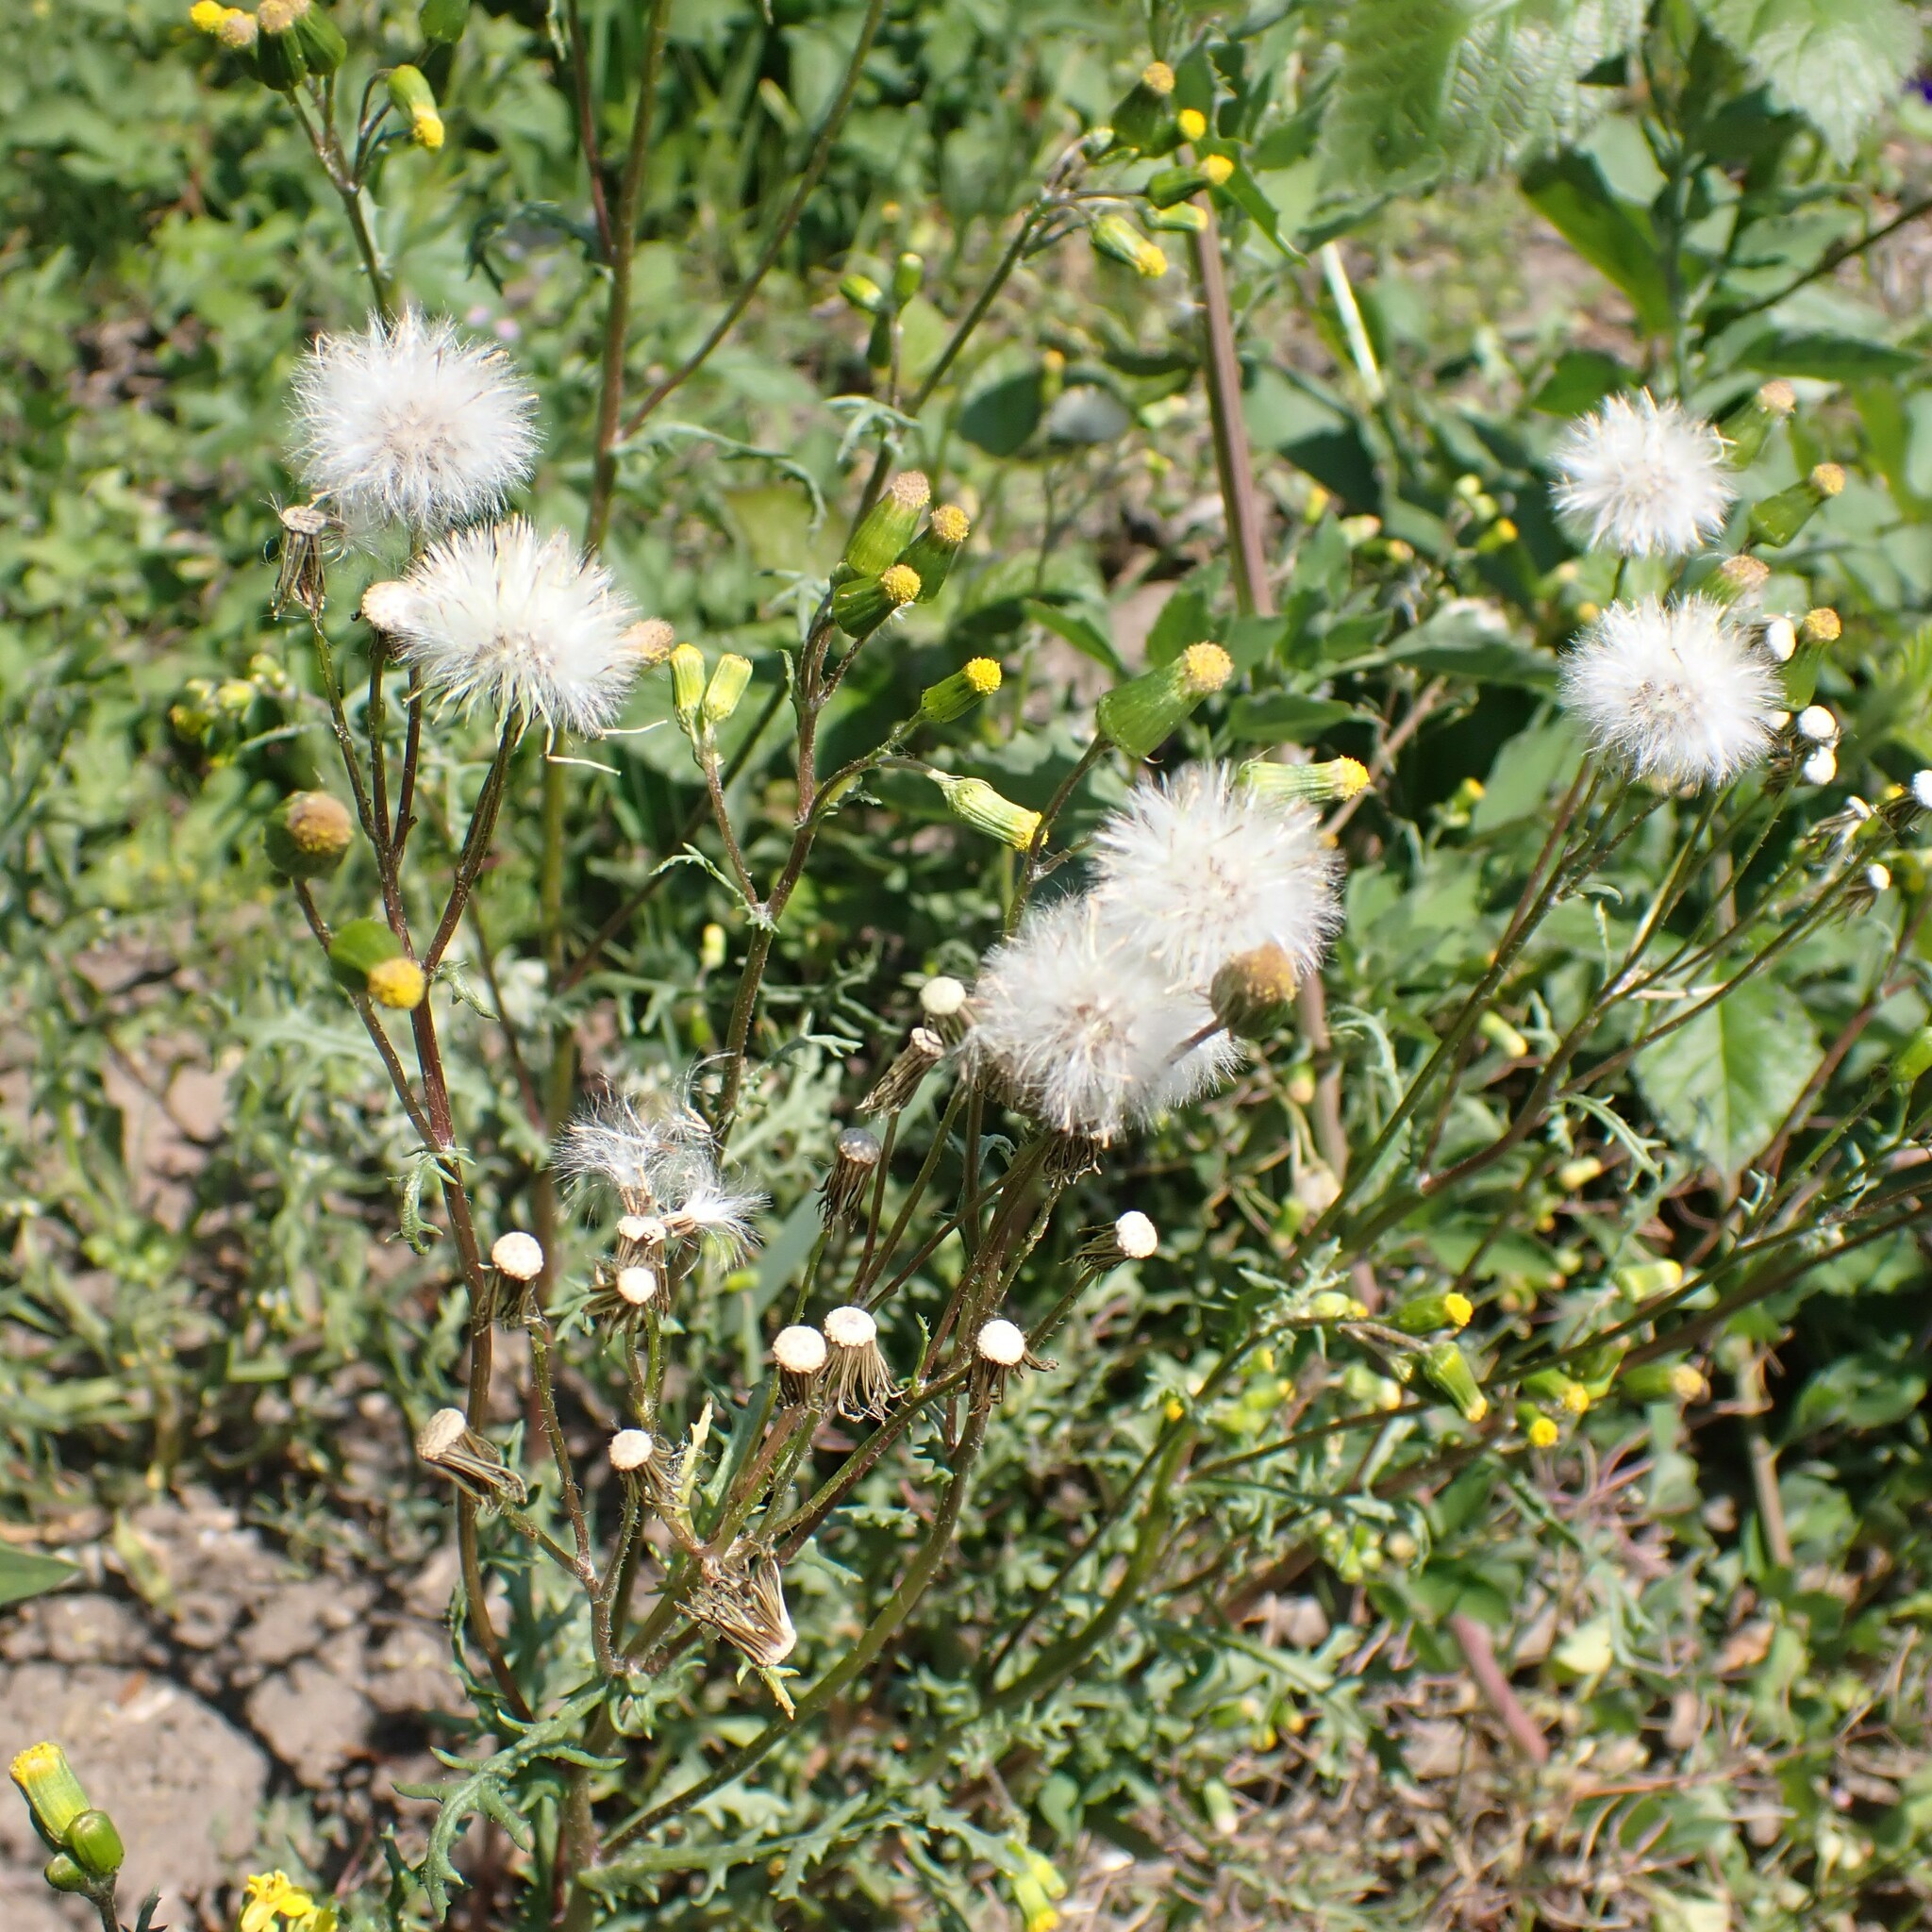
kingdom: Plantae
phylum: Tracheophyta
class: Magnoliopsida
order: Asterales
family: Asteraceae
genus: Senecio
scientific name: Senecio vulgaris
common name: Old-man-in-the-spring
